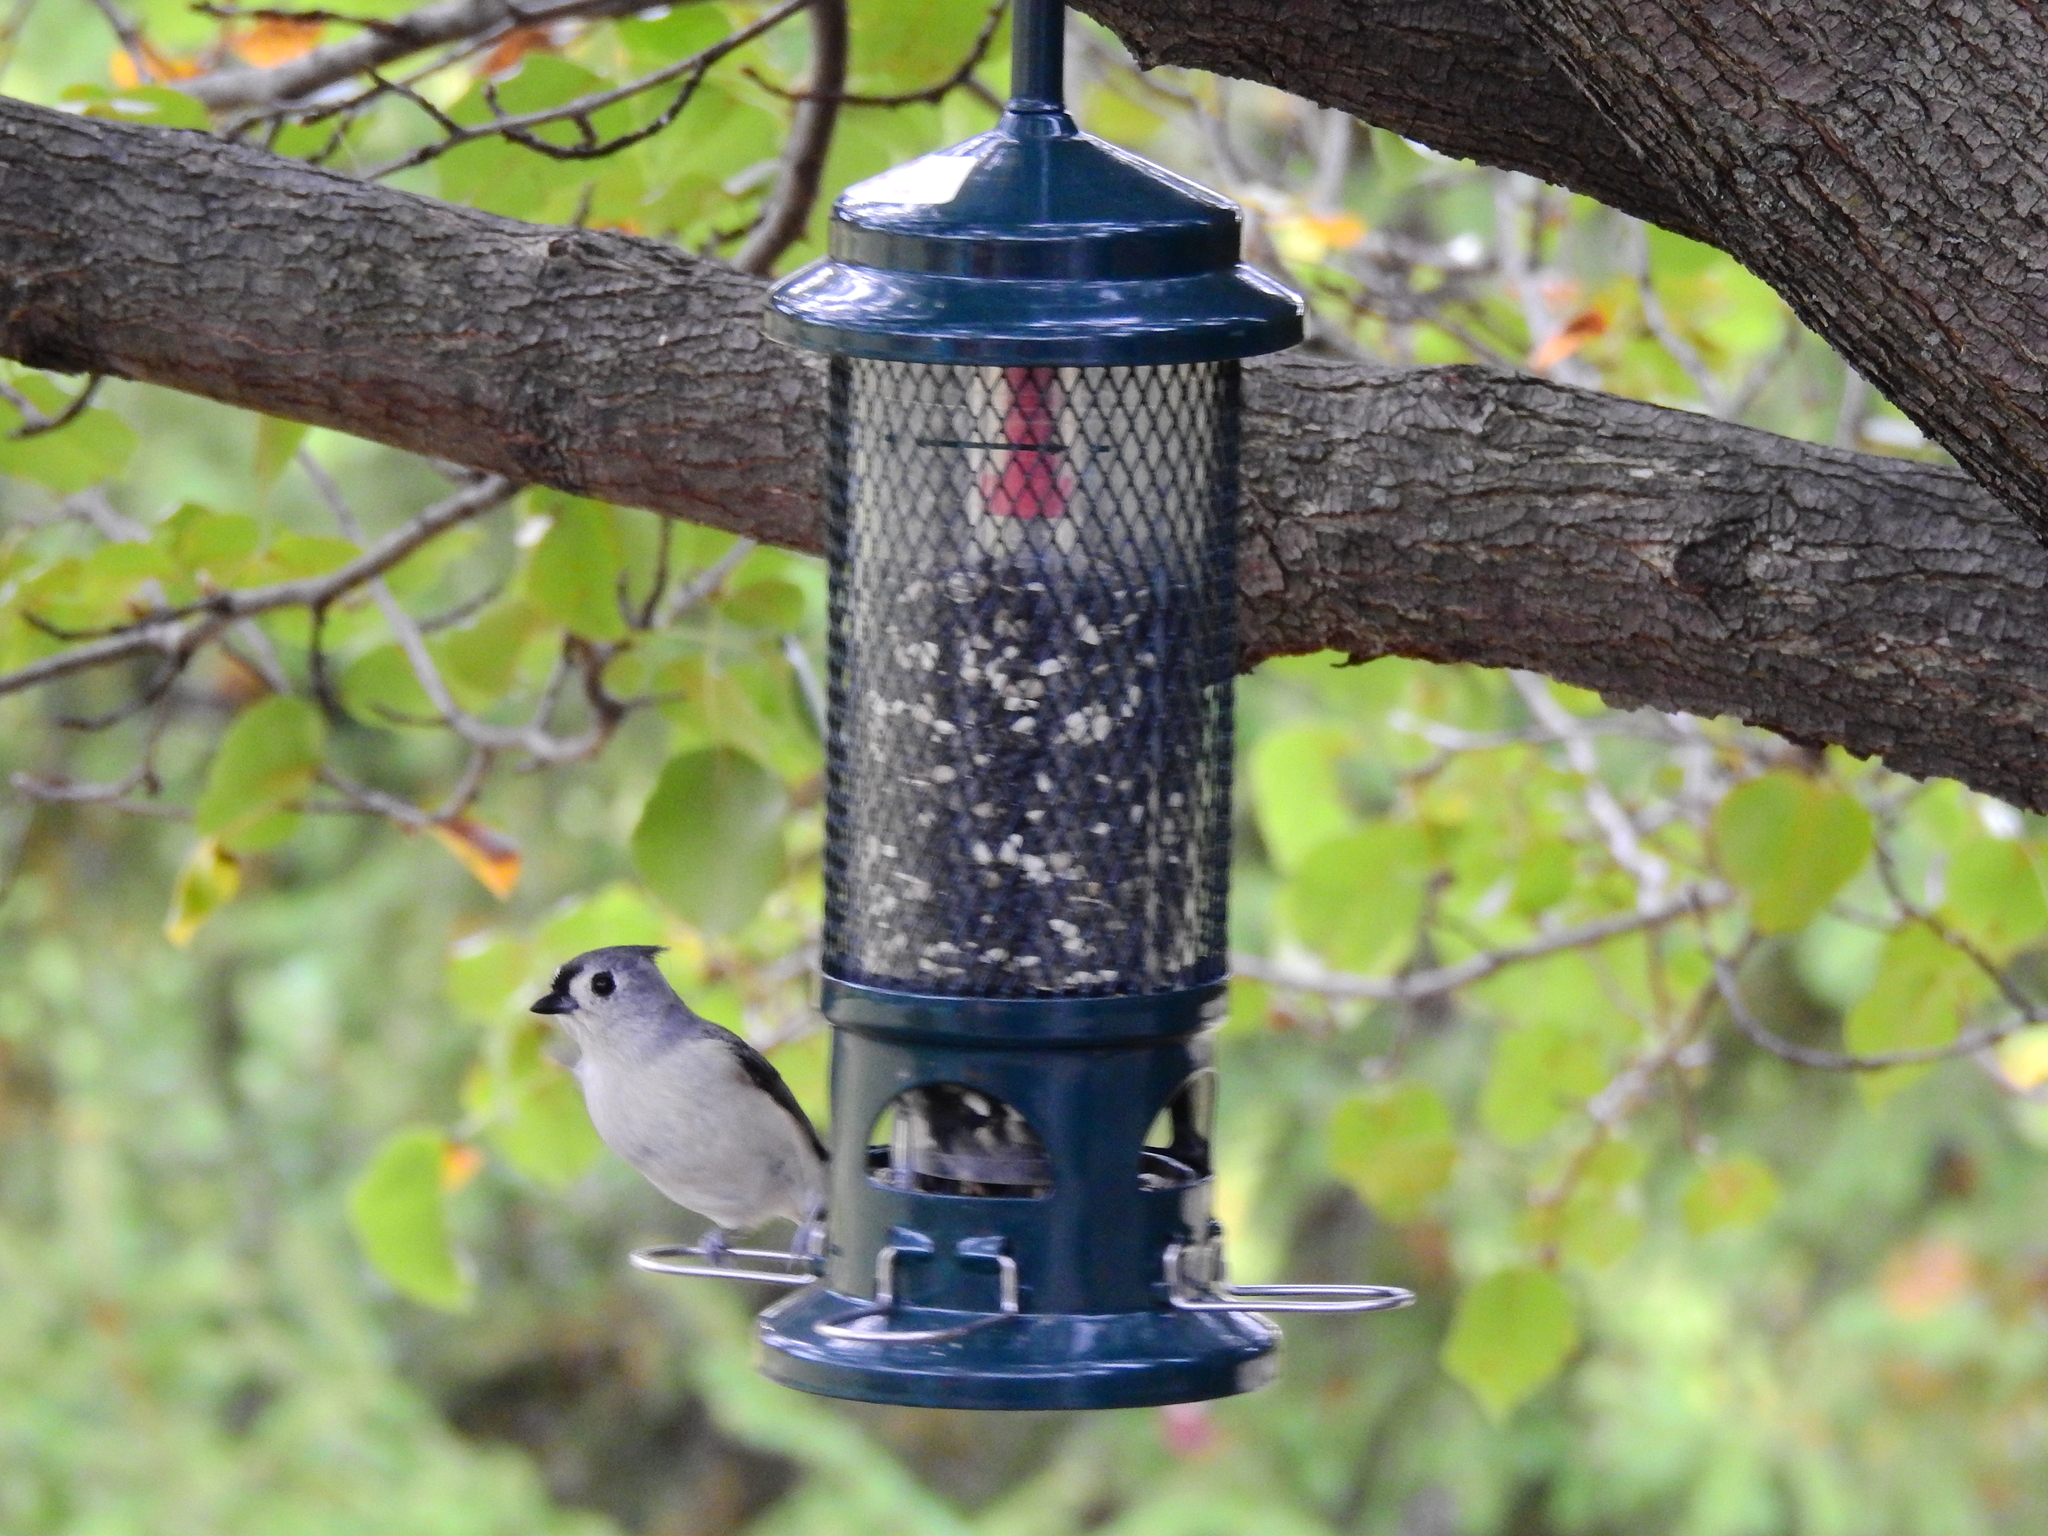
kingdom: Animalia
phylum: Chordata
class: Aves
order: Passeriformes
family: Paridae
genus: Baeolophus
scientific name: Baeolophus bicolor
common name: Tufted titmouse
